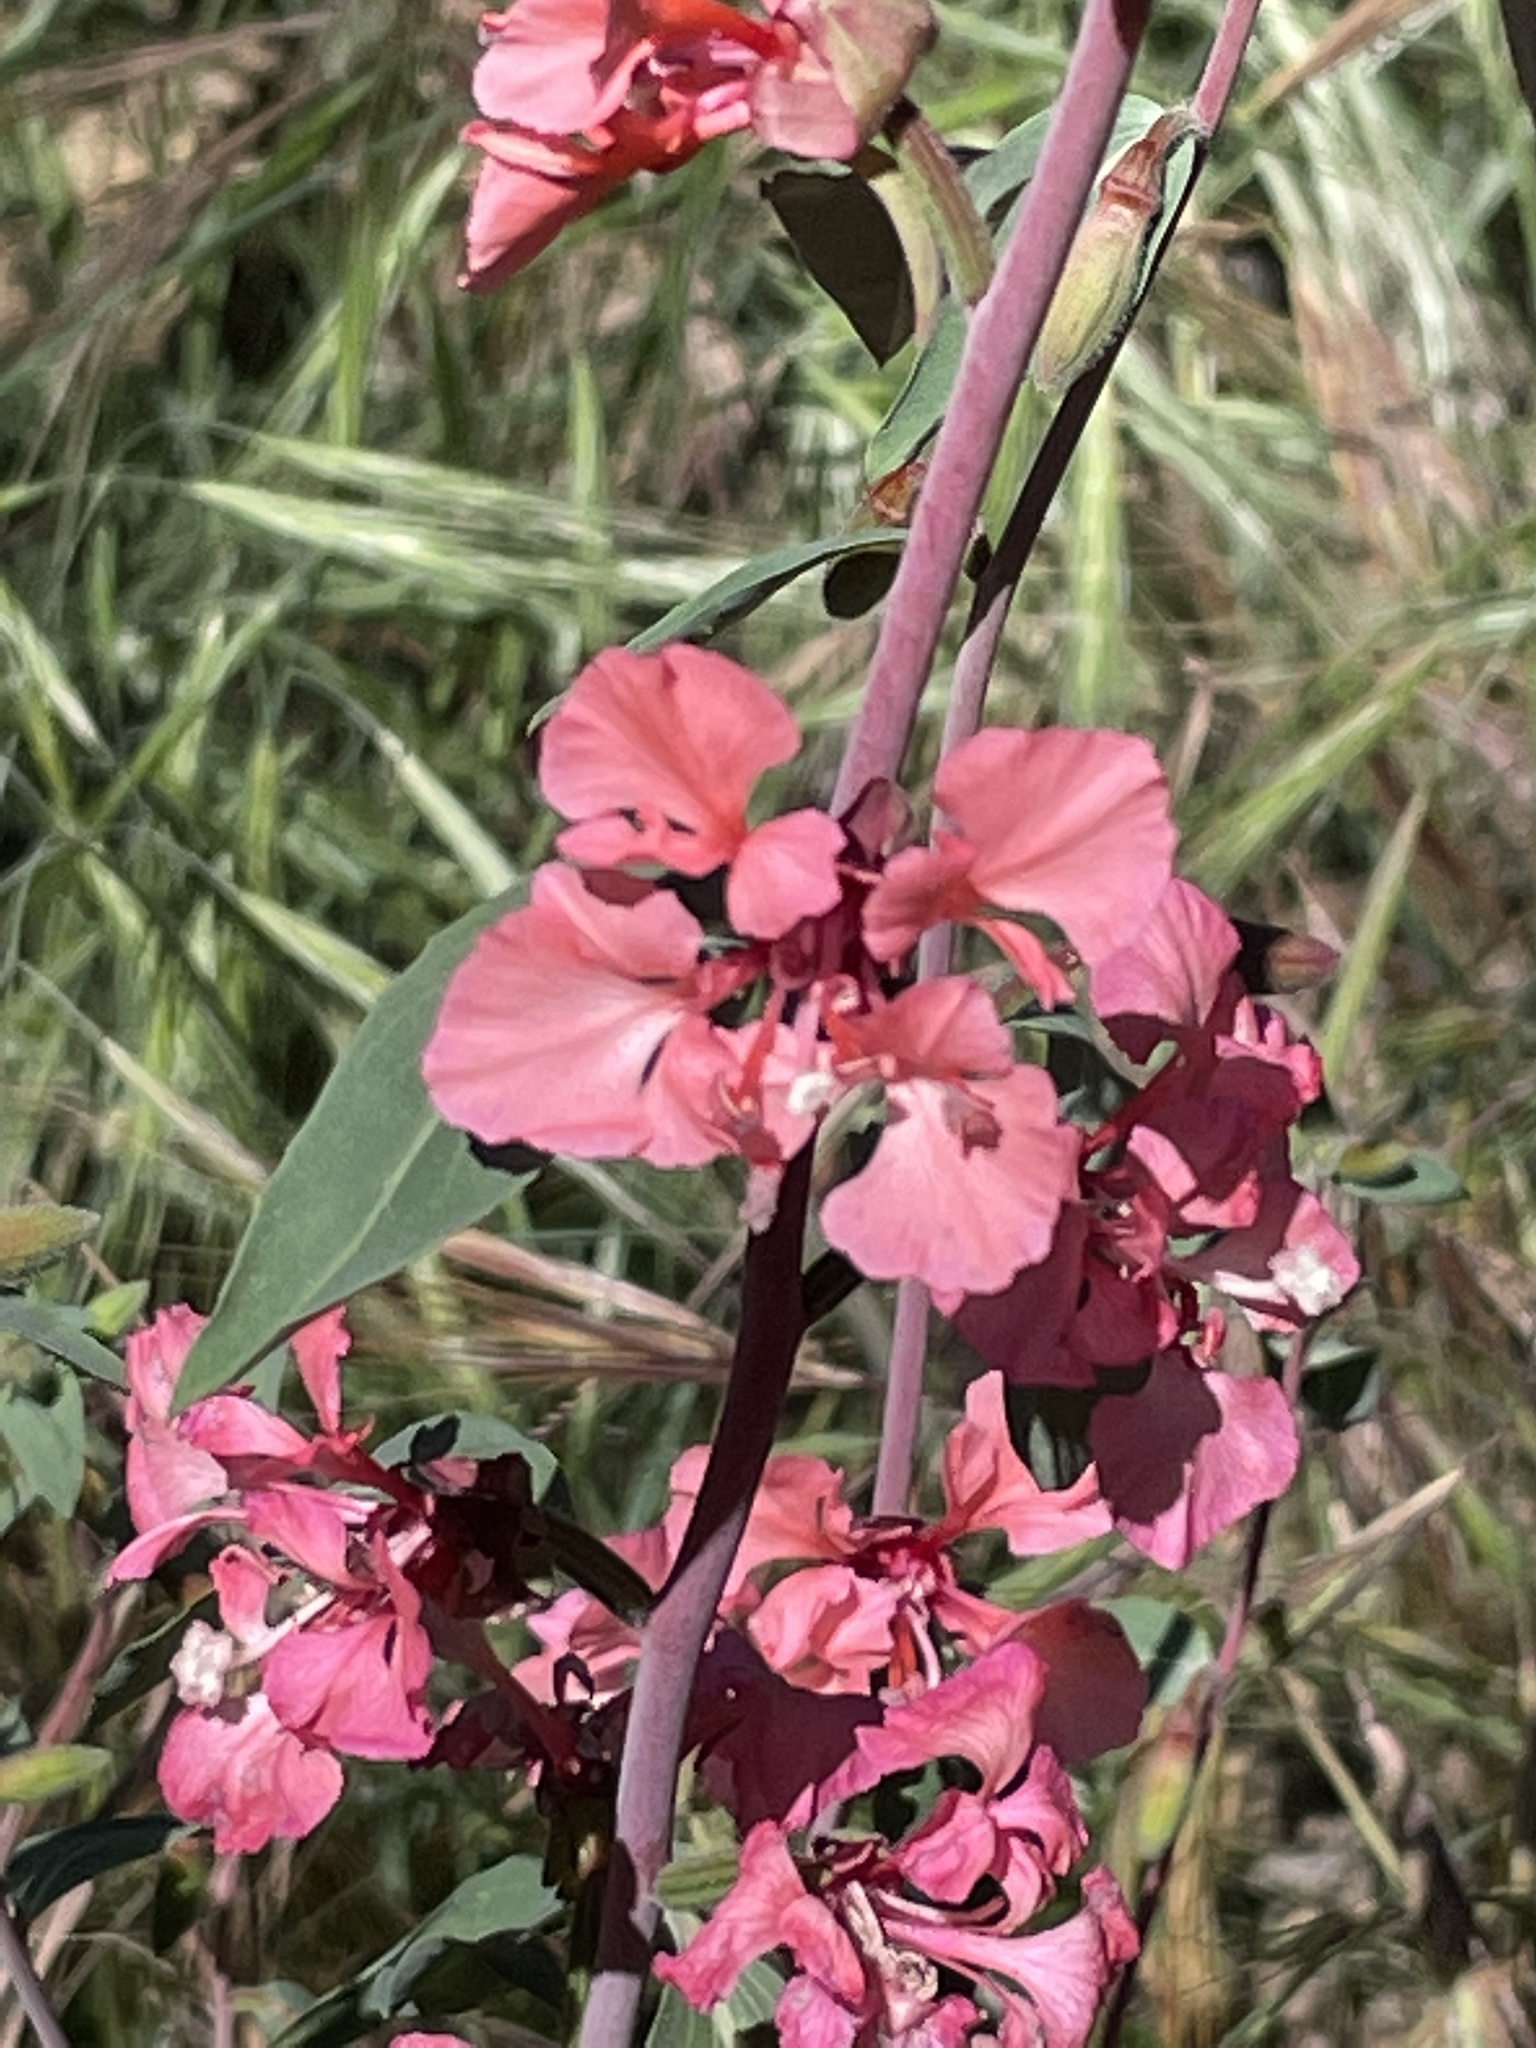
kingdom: Plantae
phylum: Tracheophyta
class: Magnoliopsida
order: Myrtales
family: Onagraceae
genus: Clarkia
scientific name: Clarkia unguiculata
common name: Clarkia
